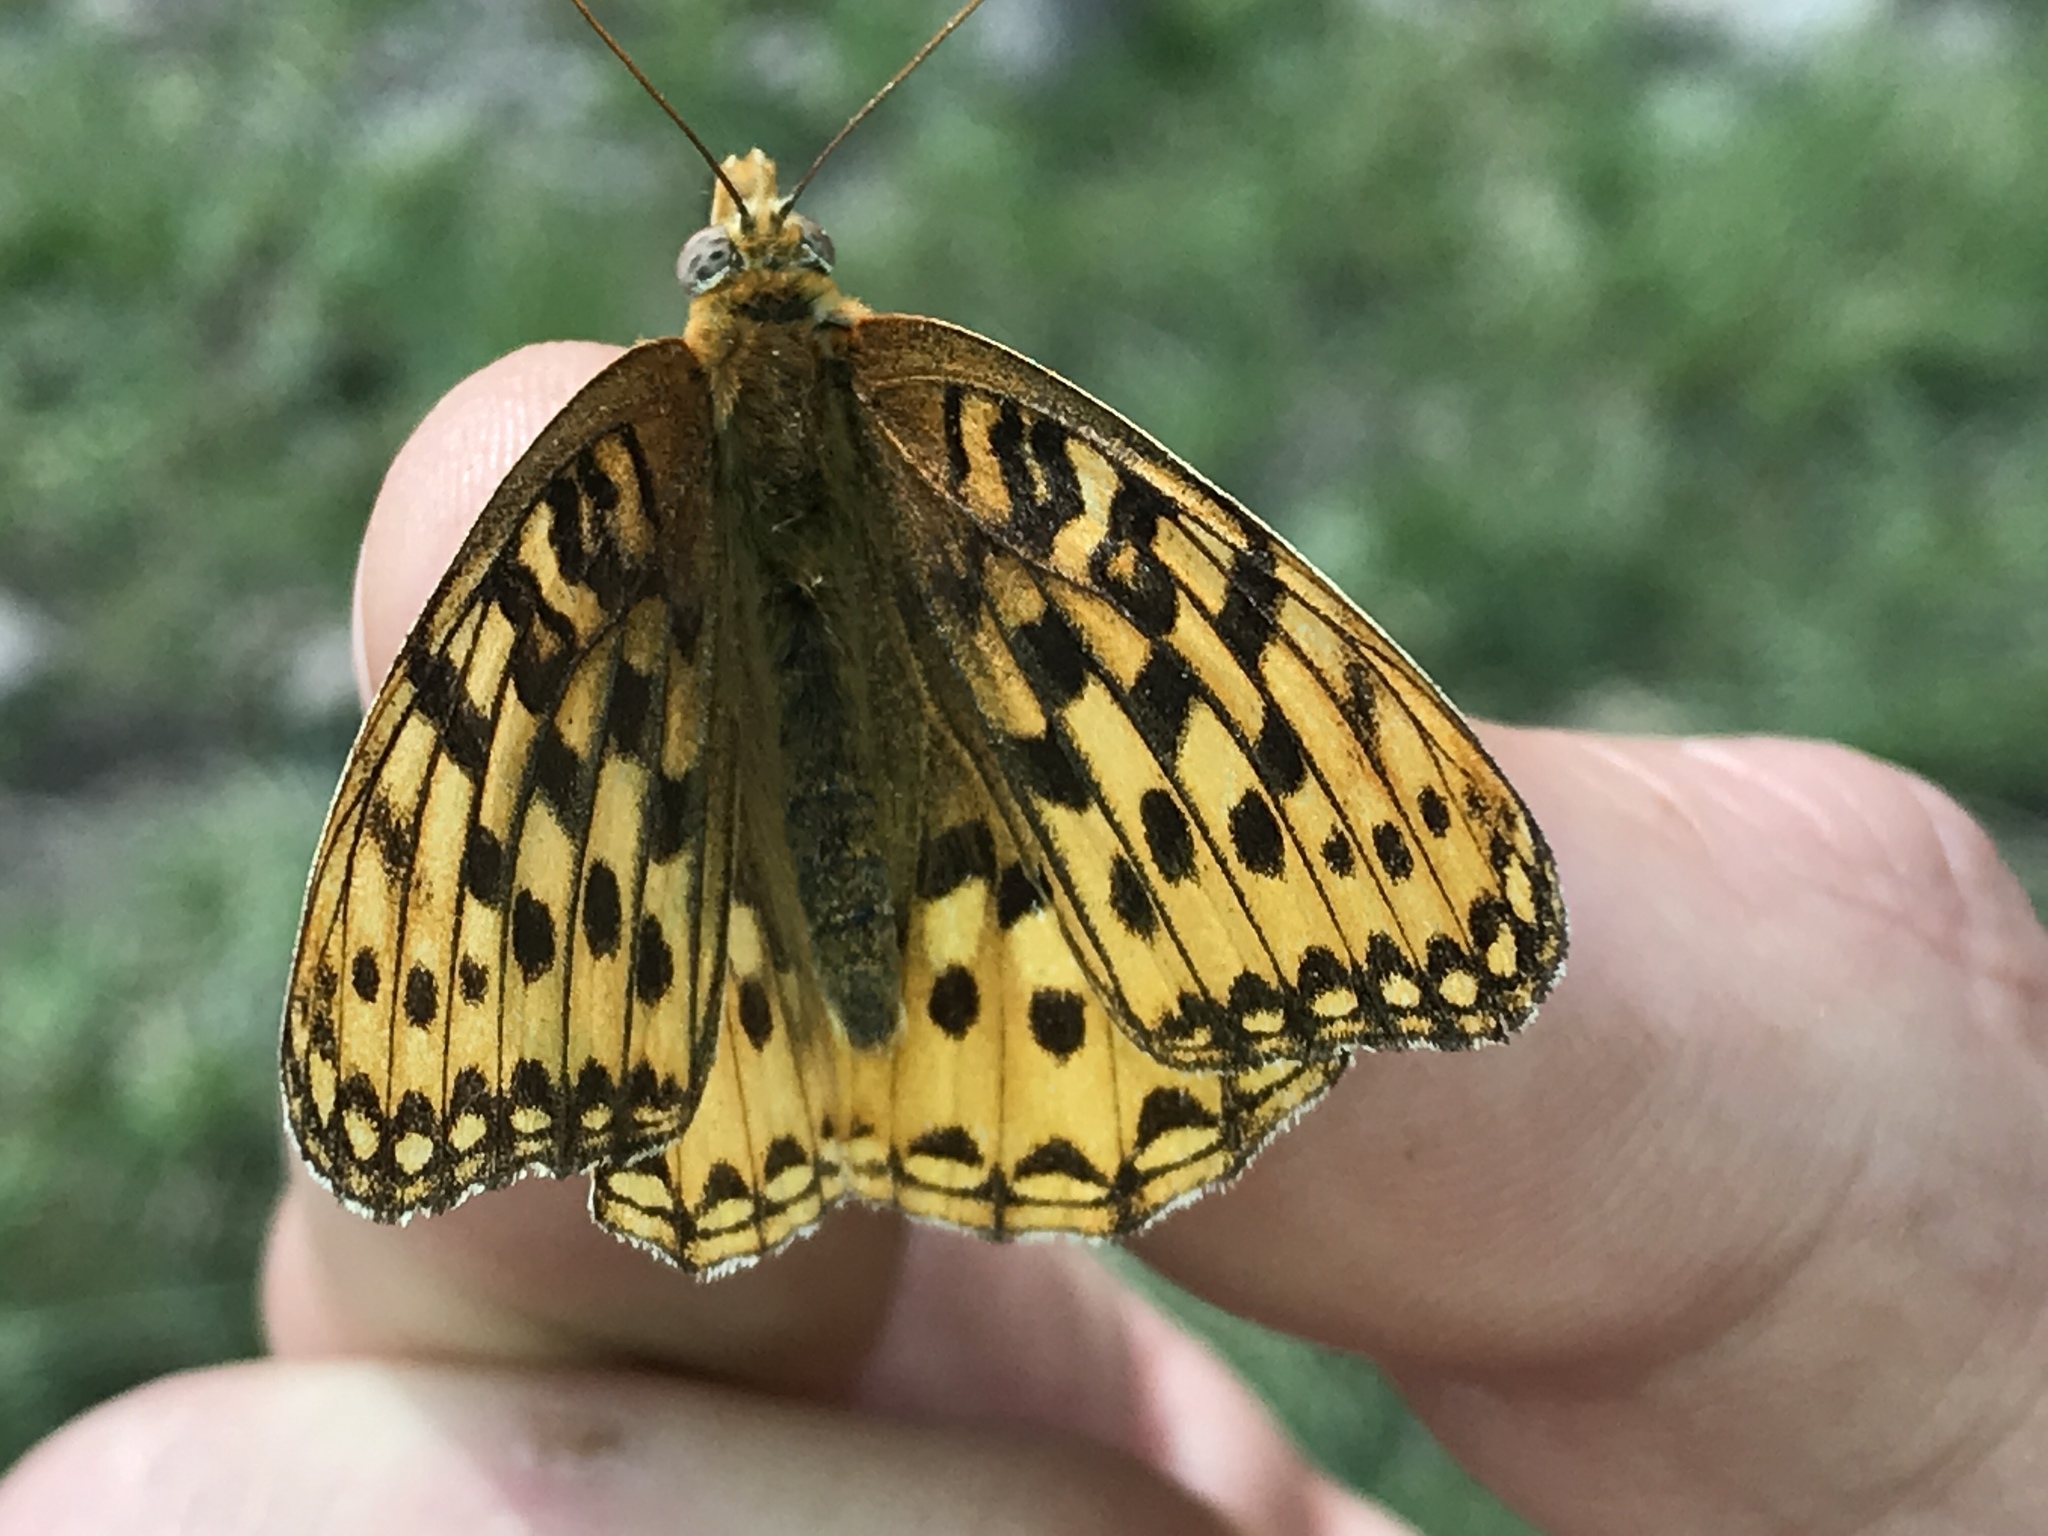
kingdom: Animalia
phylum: Arthropoda
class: Insecta
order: Lepidoptera
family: Nymphalidae
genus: Speyeria
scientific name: Speyeria zerene
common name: Zerene fritillary
